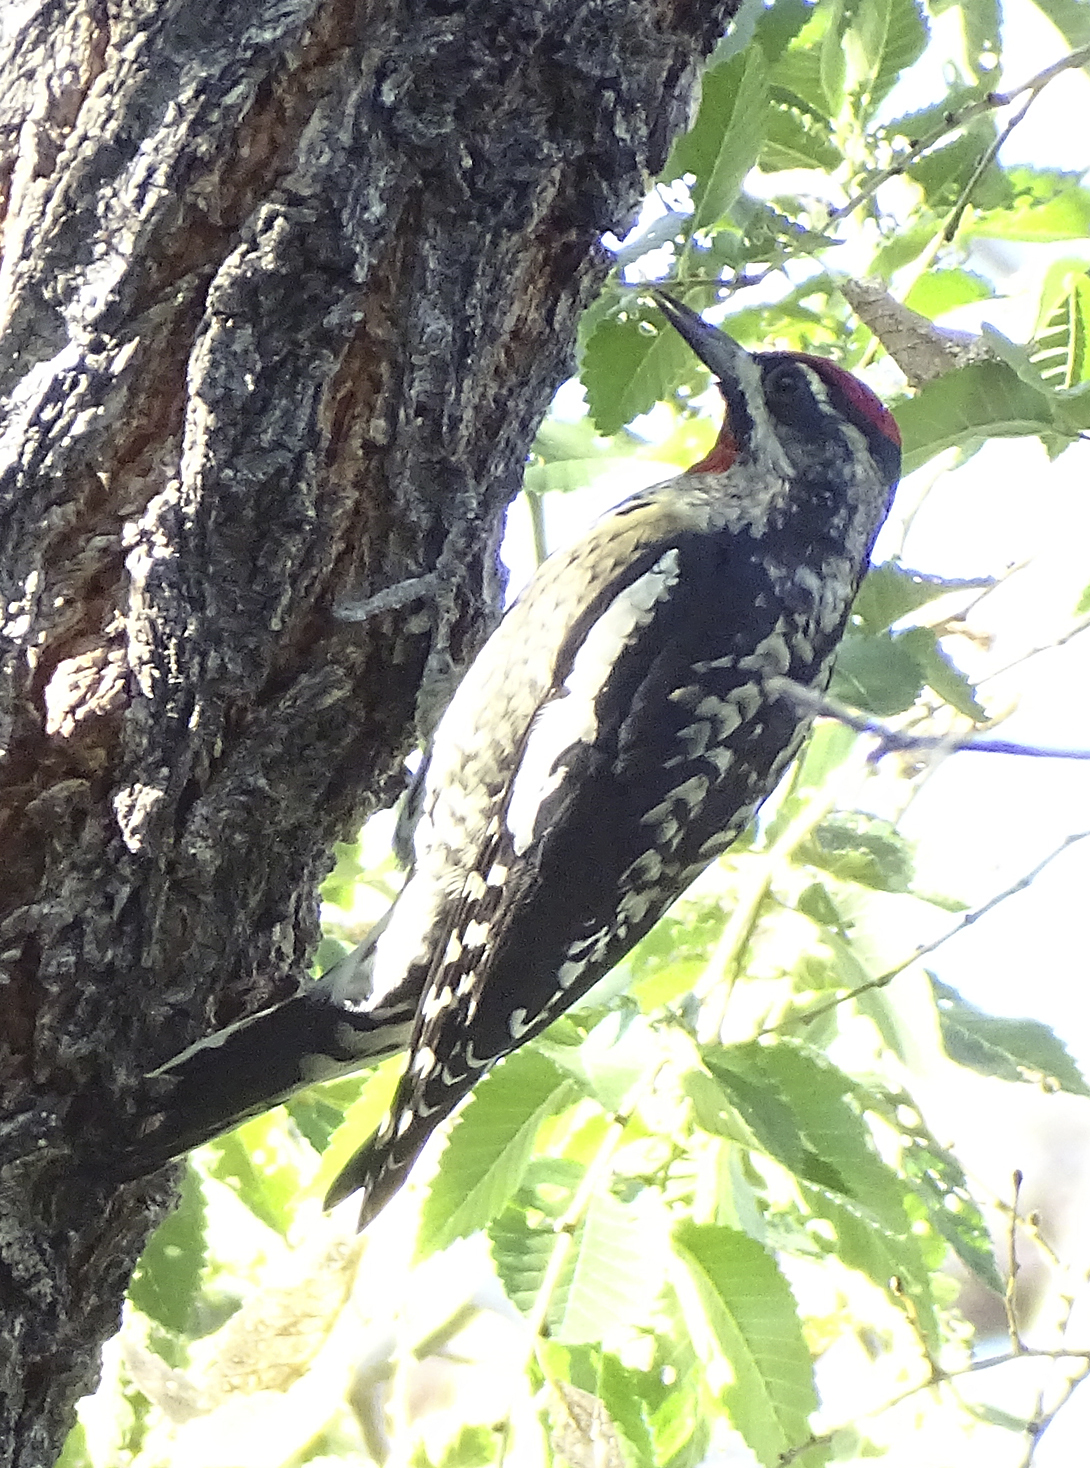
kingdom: Animalia
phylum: Chordata
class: Aves
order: Piciformes
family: Picidae
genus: Sphyrapicus
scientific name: Sphyrapicus nuchalis
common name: Red-naped sapsucker
